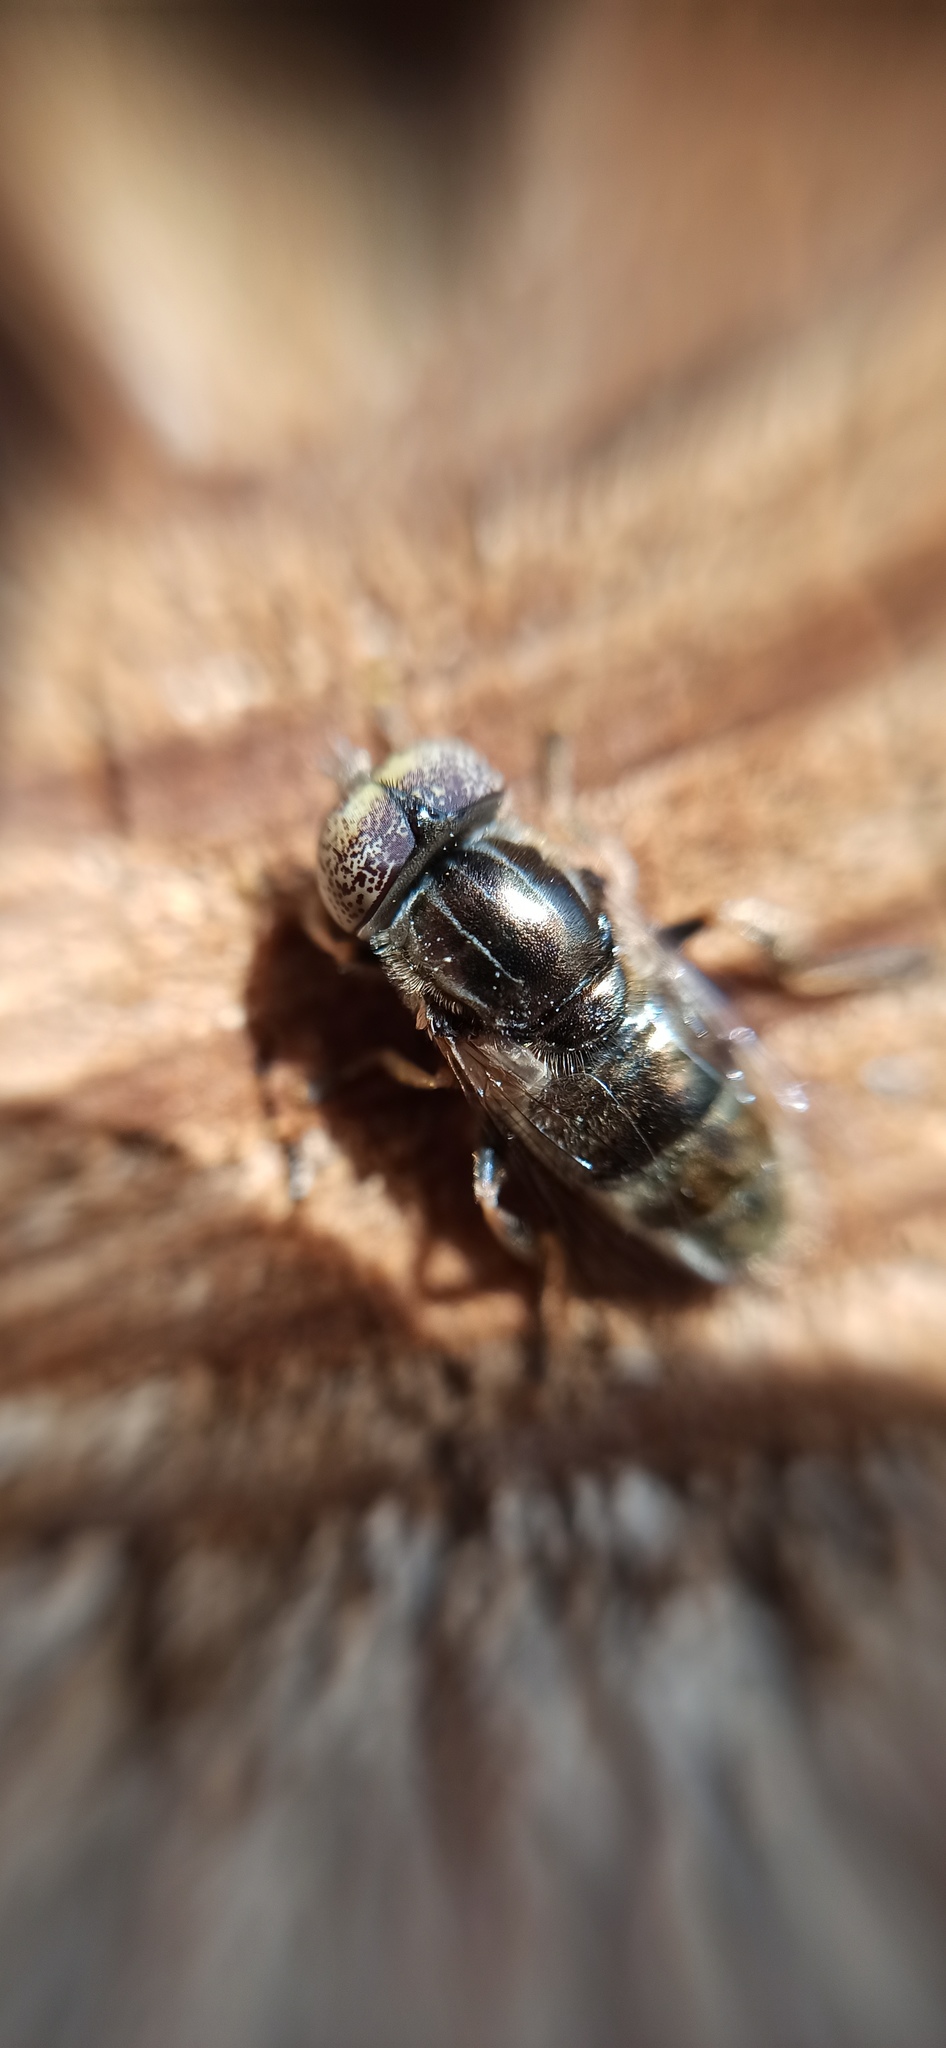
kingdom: Animalia
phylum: Arthropoda
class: Insecta
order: Diptera
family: Syrphidae
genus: Eristalinus
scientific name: Eristalinus aeneus
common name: Syrphid fly
